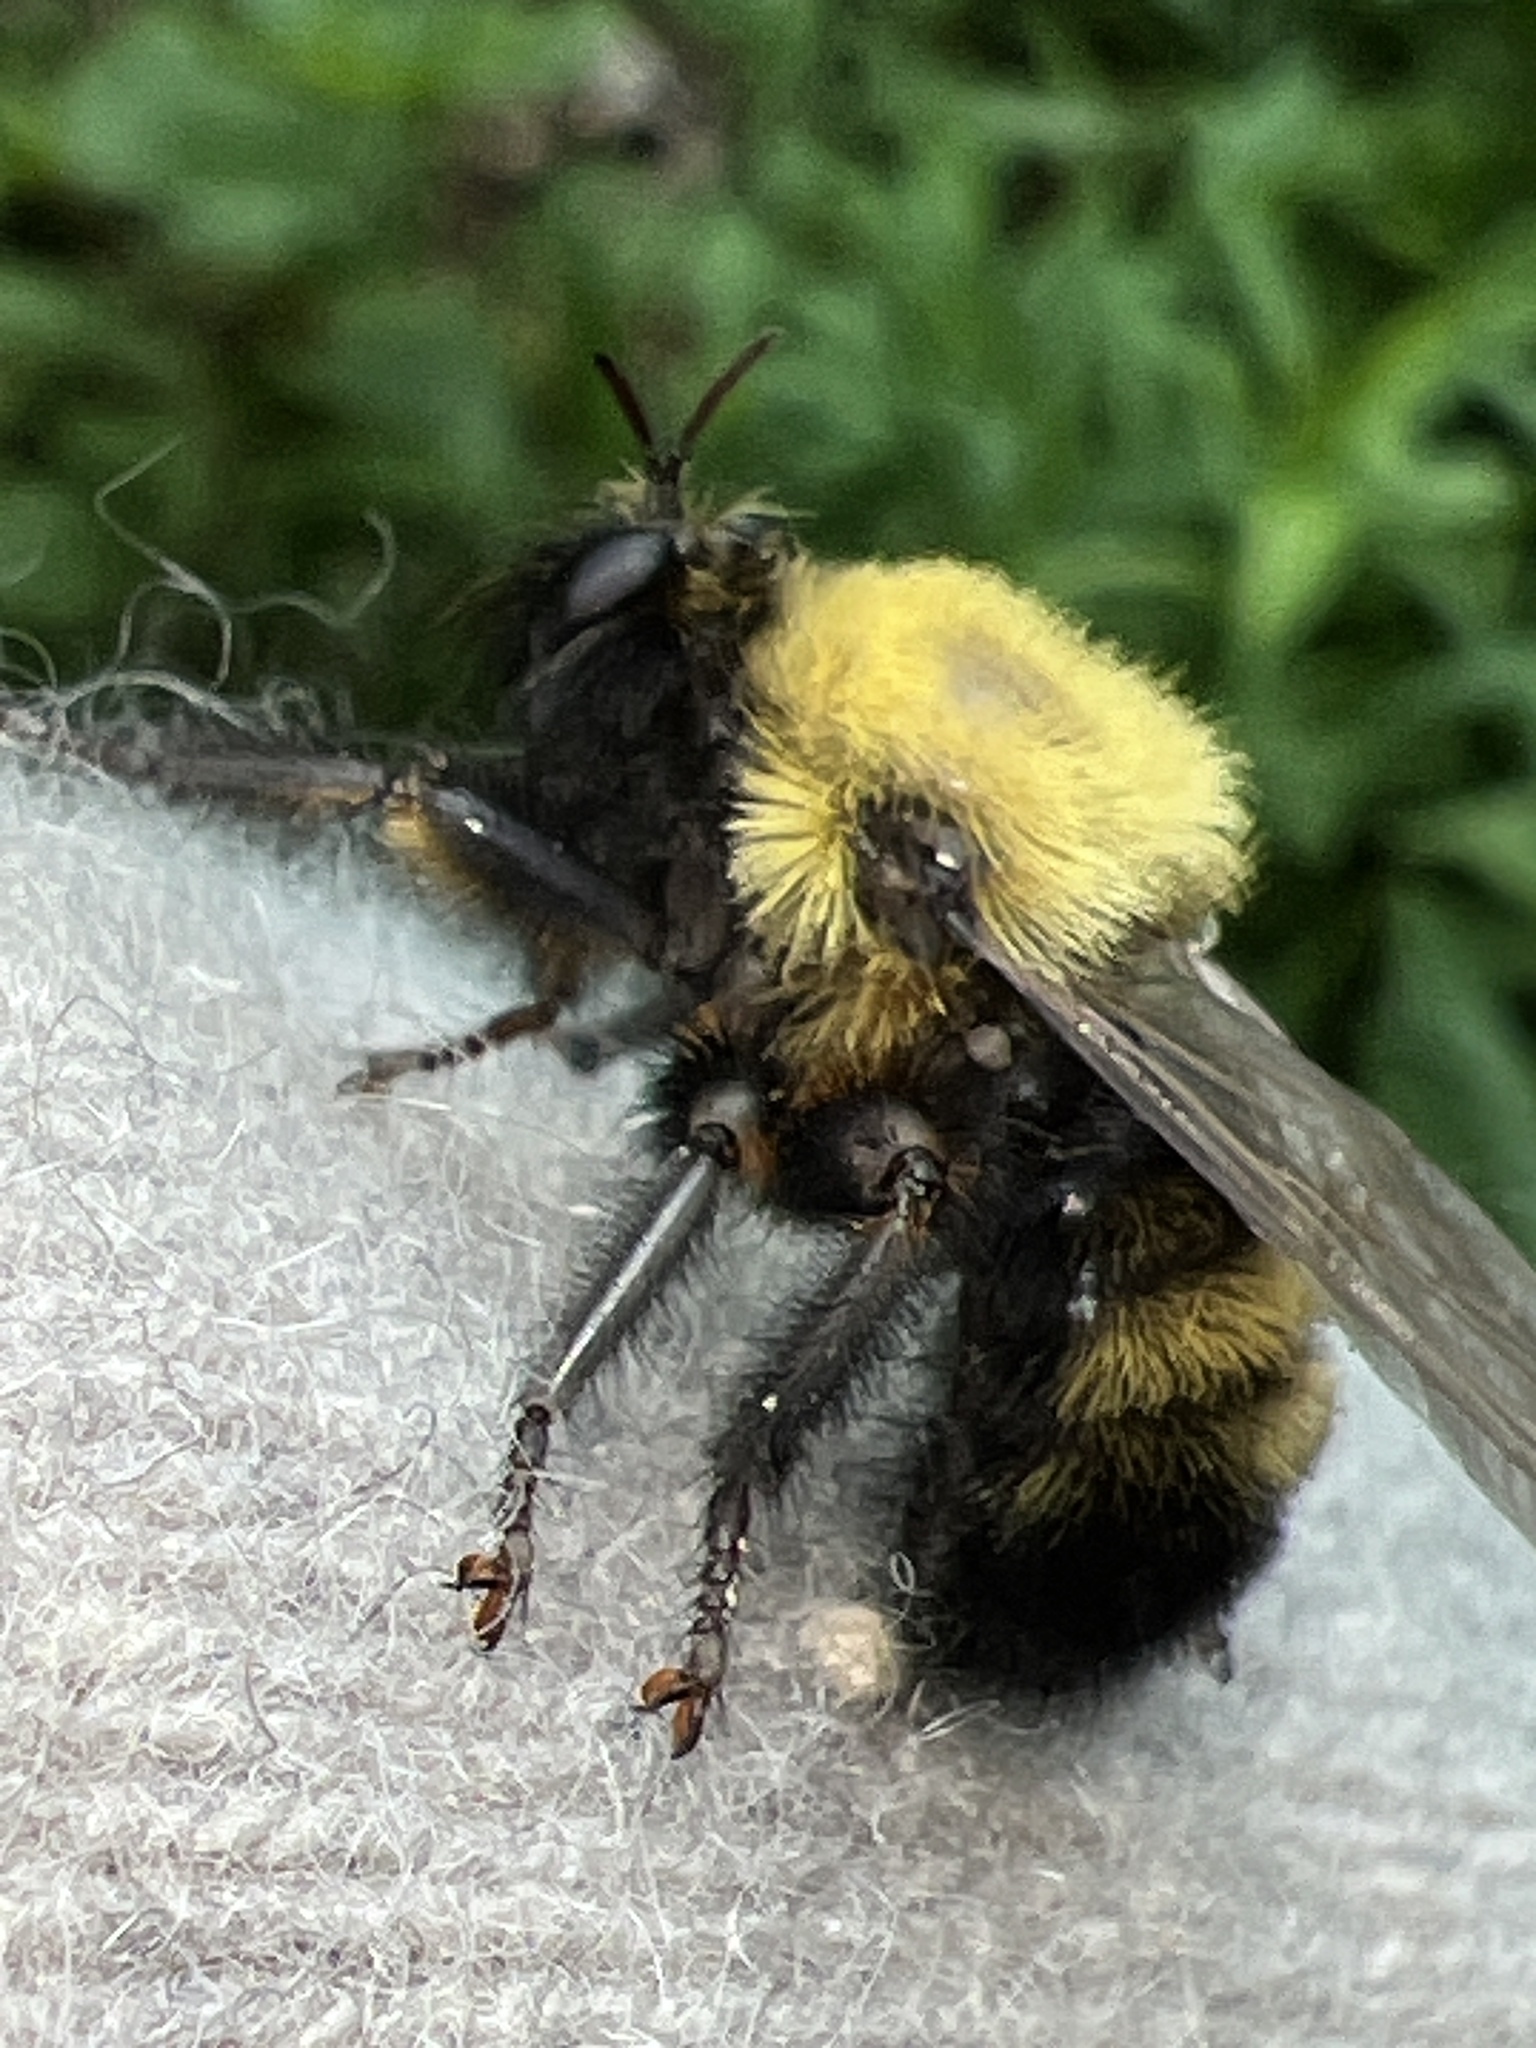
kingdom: Animalia
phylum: Arthropoda
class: Insecta
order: Diptera
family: Asilidae
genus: Laphria
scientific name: Laphria thoracica
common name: Bumble bee mimic robber fly
